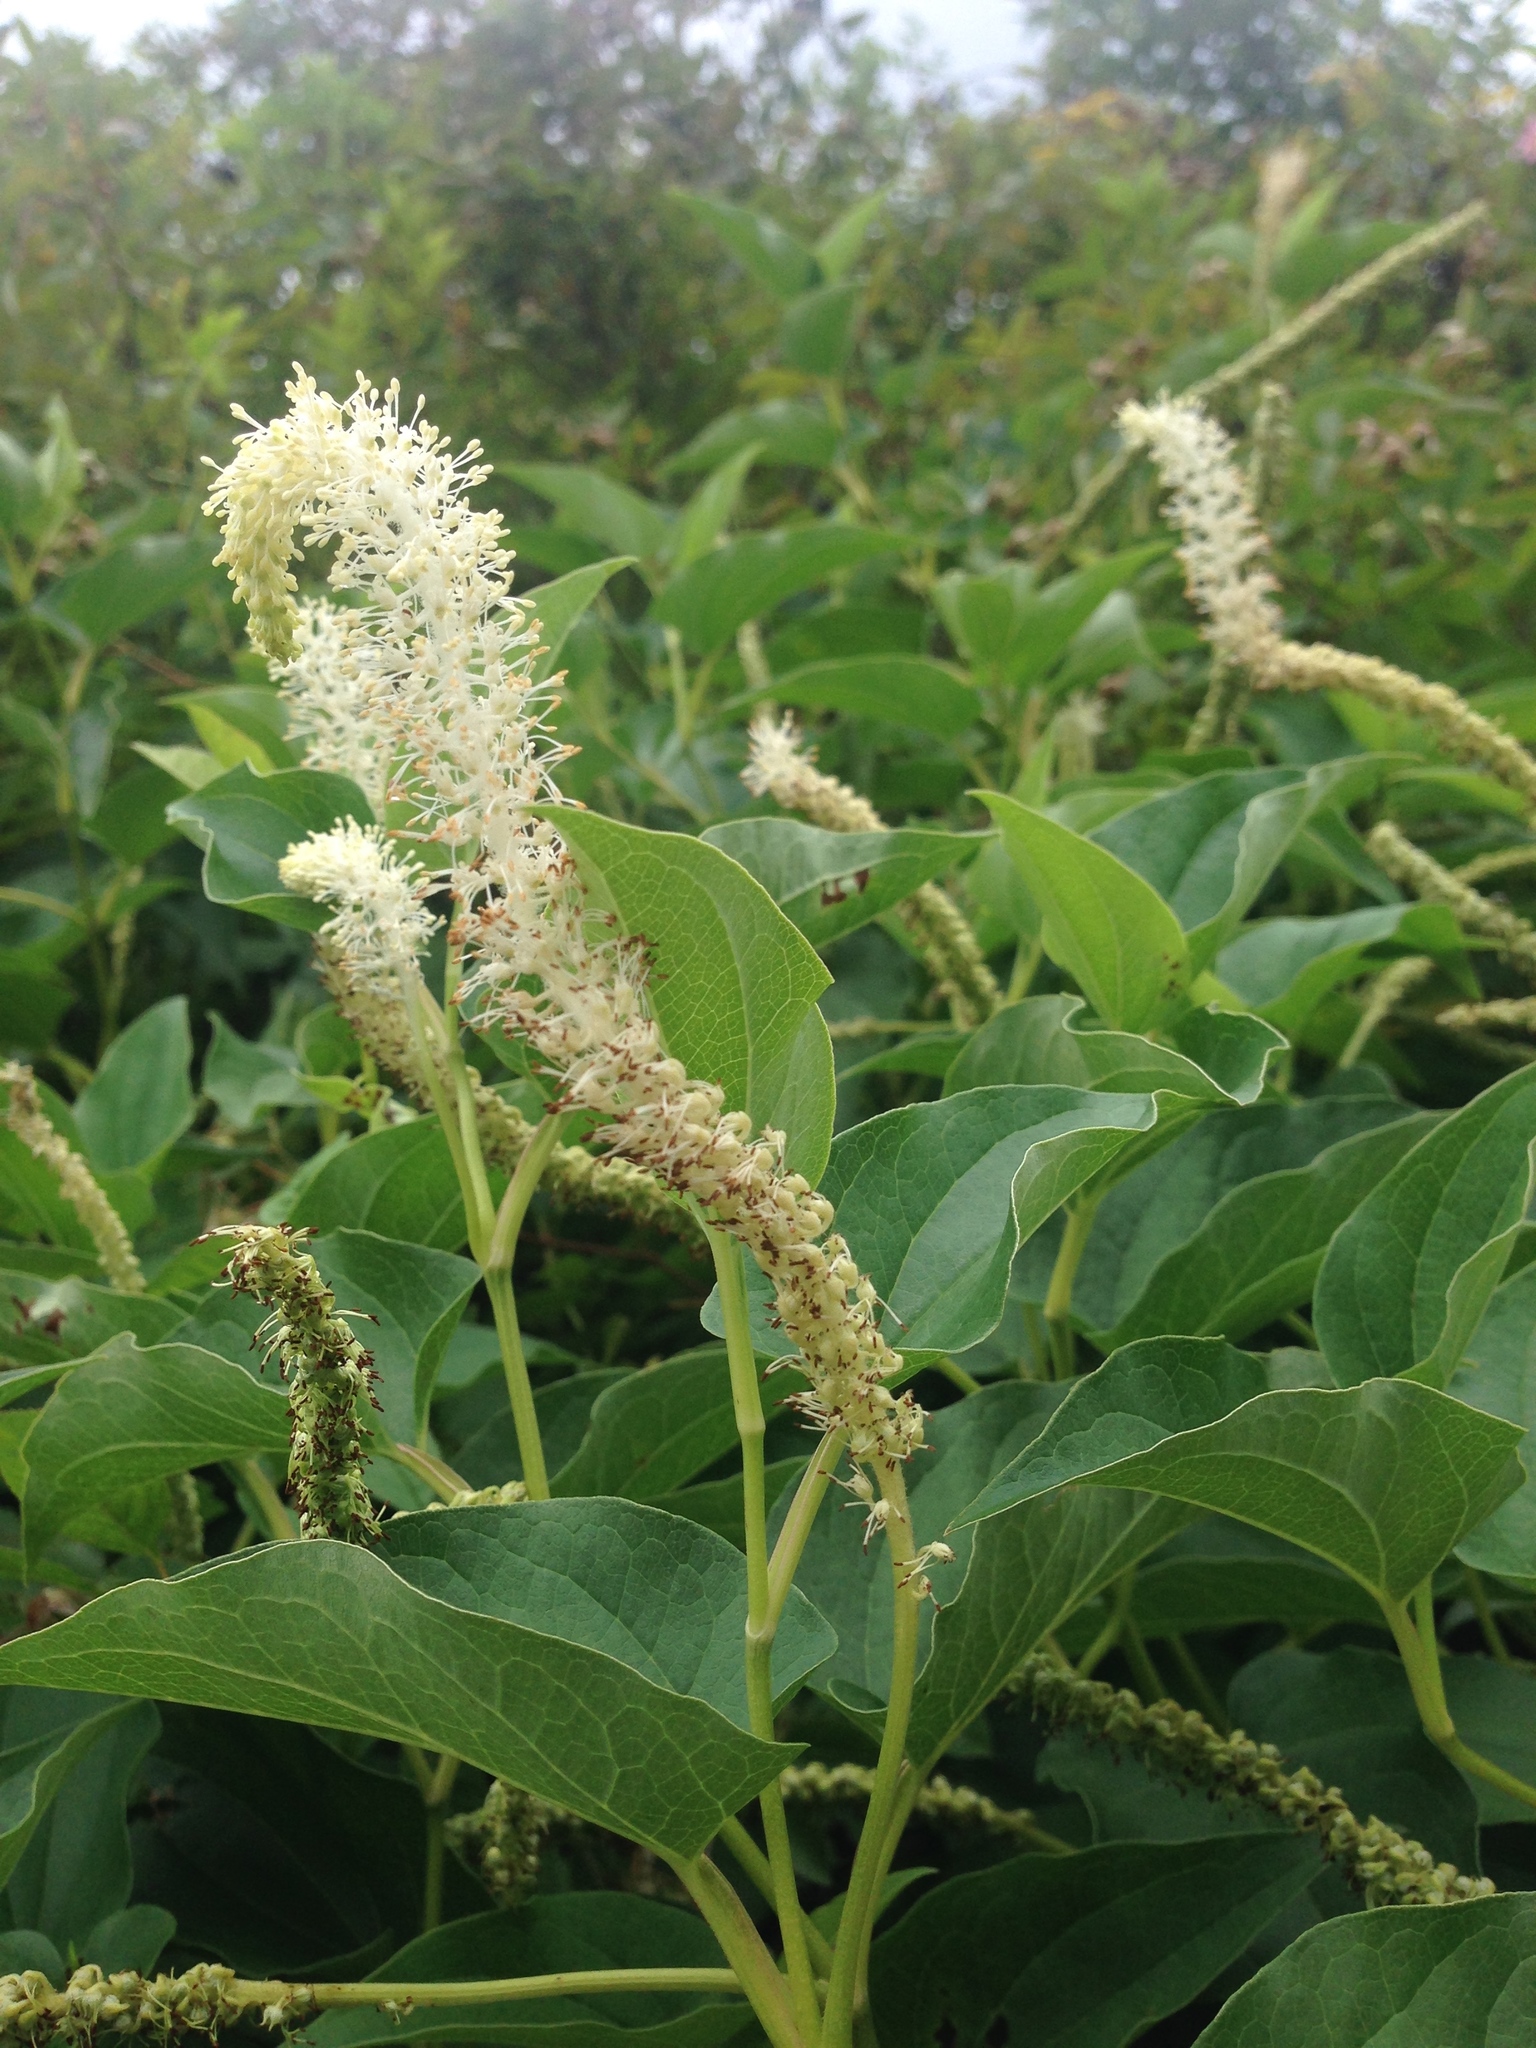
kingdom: Plantae
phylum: Tracheophyta
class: Magnoliopsida
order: Piperales
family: Saururaceae
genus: Saururus
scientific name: Saururus cernuus
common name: Lizard's-tail
